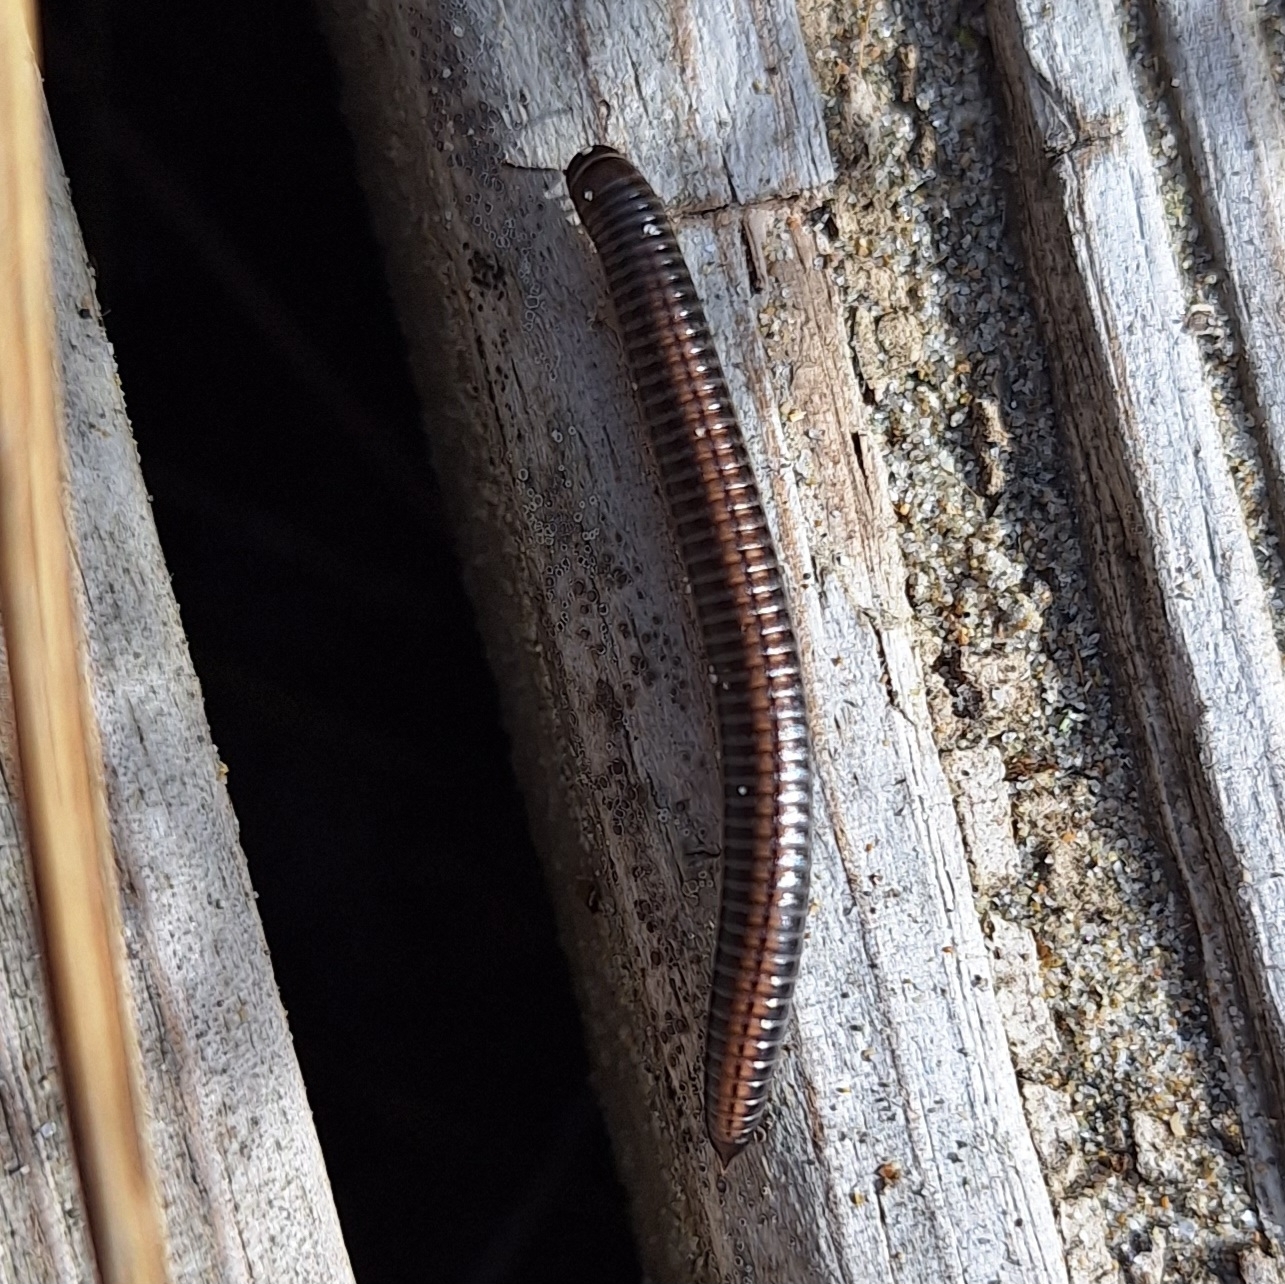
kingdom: Animalia
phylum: Arthropoda
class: Diplopoda
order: Julida
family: Julidae
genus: Ommatoiulus
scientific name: Ommatoiulus sabulosus
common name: Striped millipede
